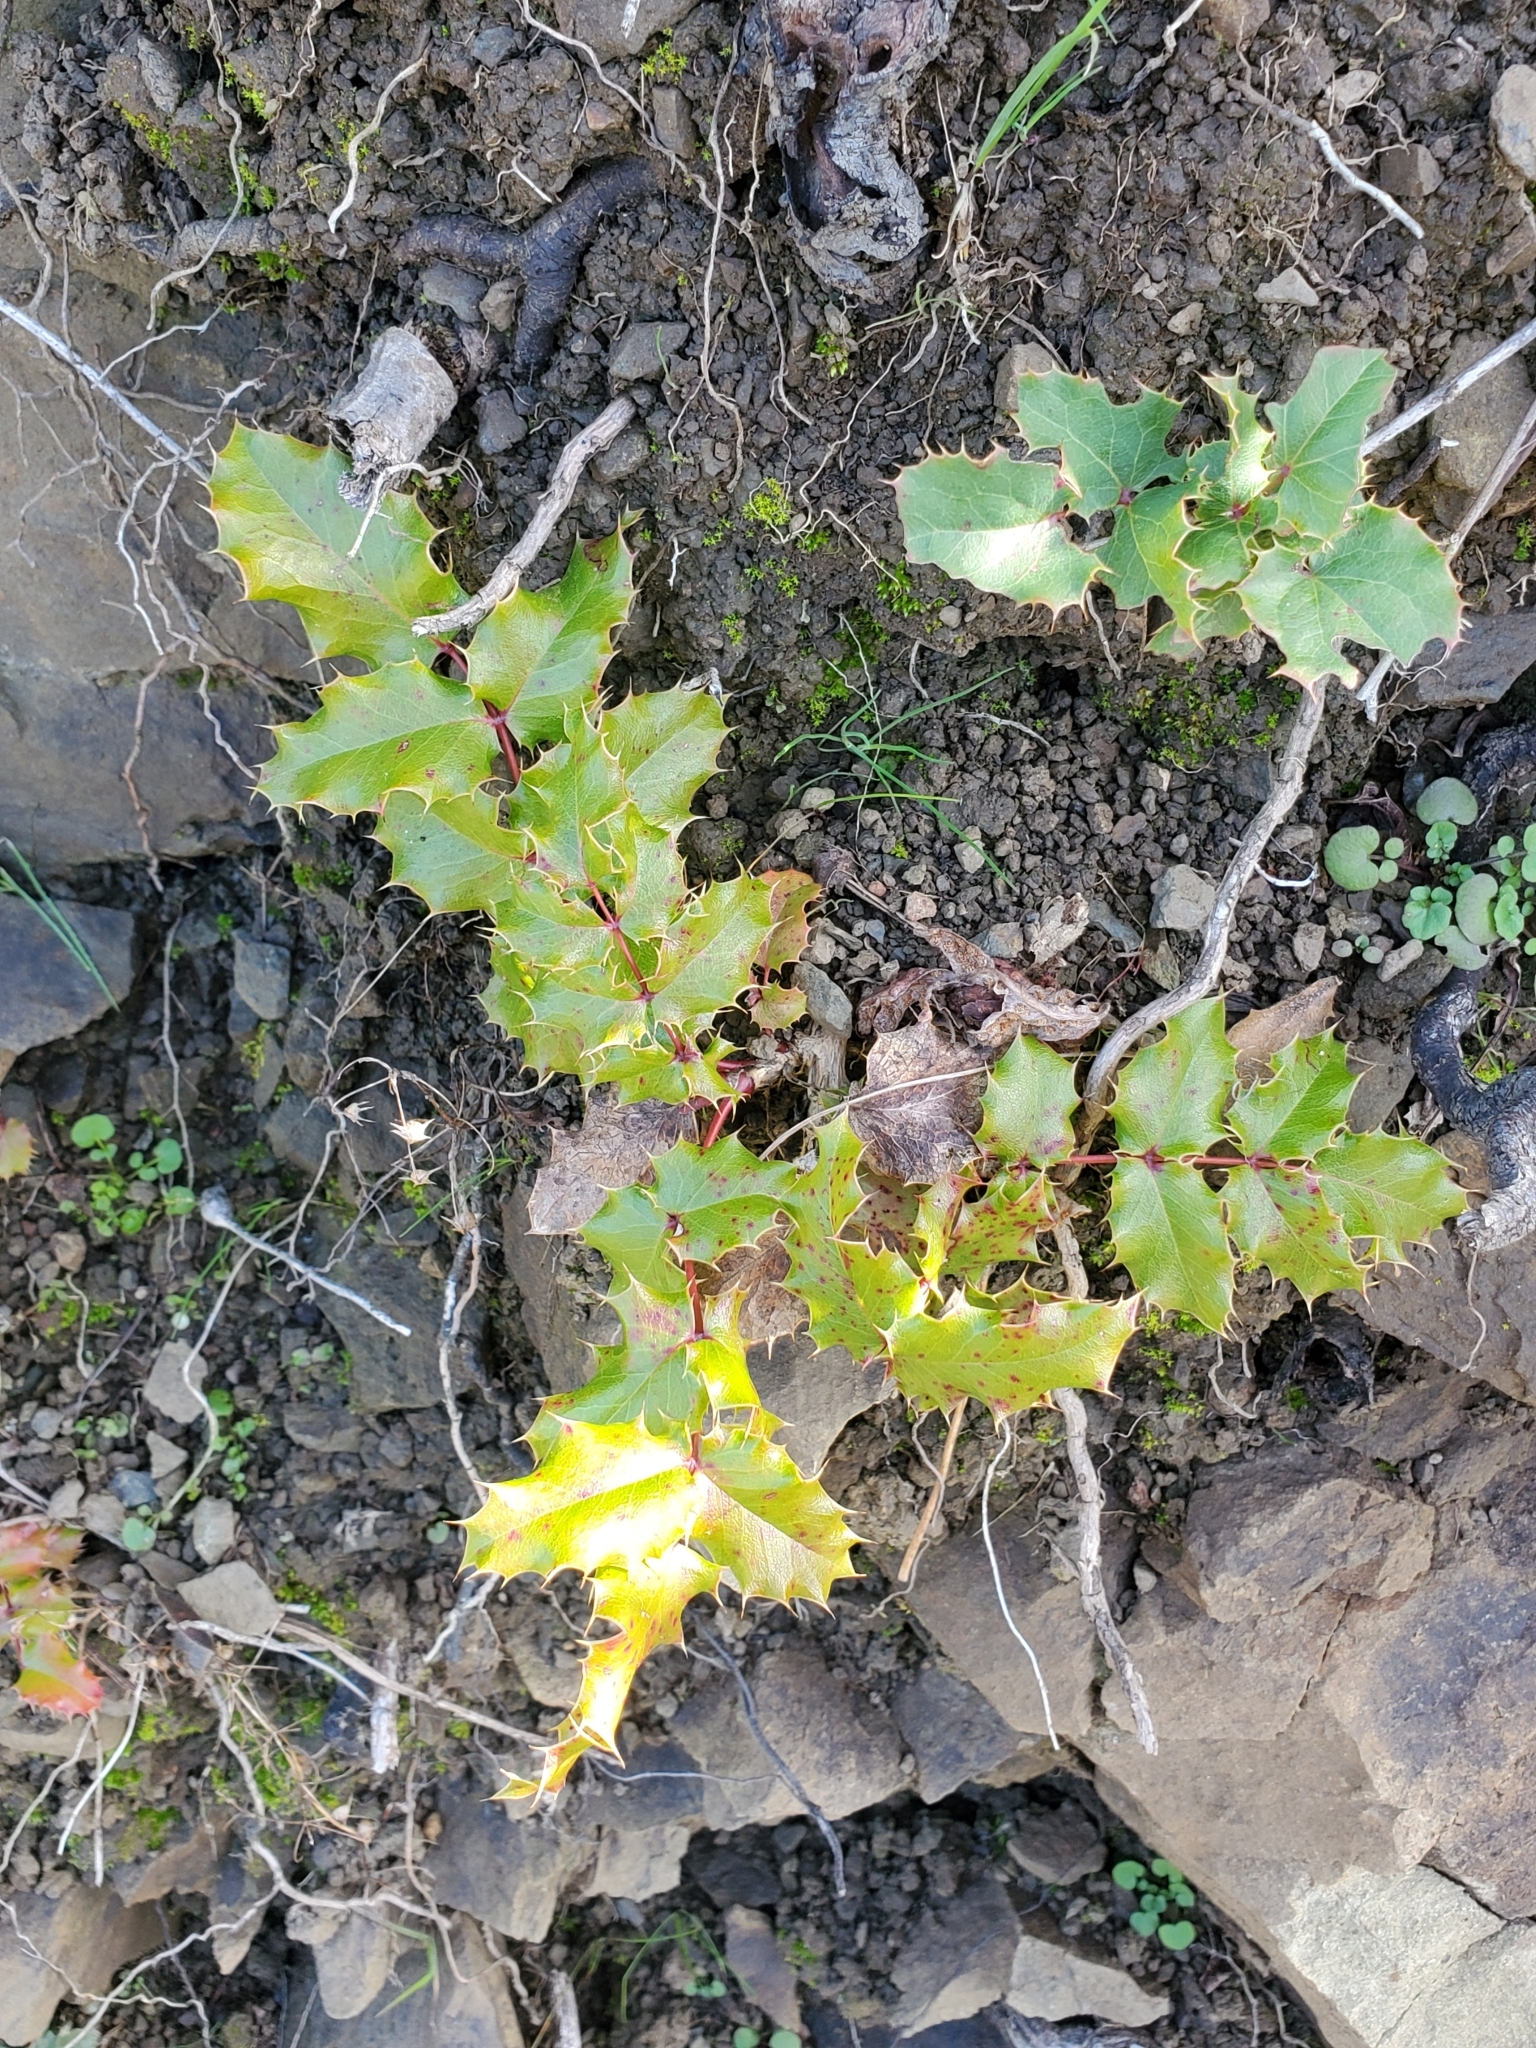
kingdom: Plantae
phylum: Tracheophyta
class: Magnoliopsida
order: Ranunculales
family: Berberidaceae
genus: Mahonia
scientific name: Mahonia
